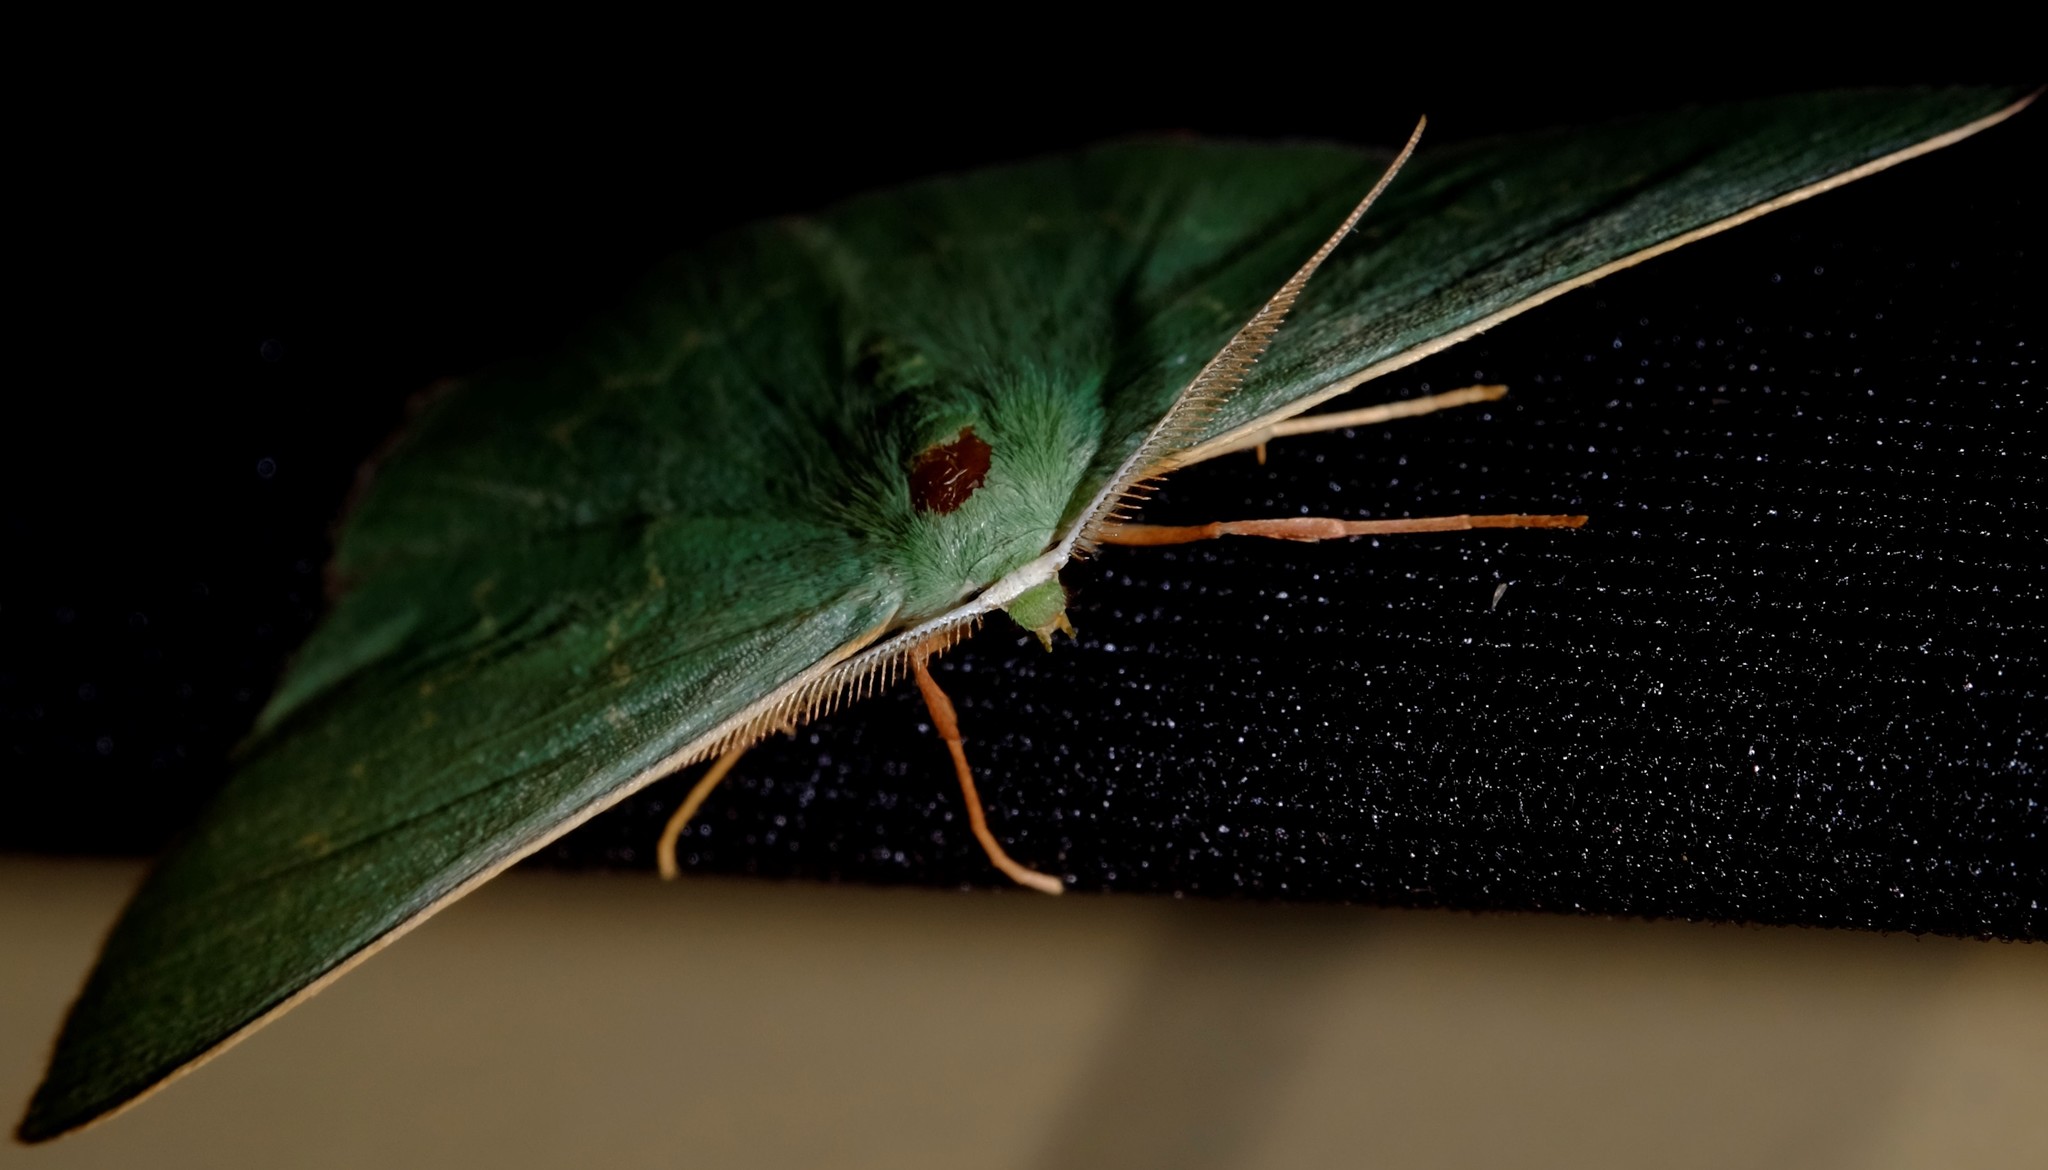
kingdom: Animalia
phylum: Arthropoda
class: Insecta
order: Lepidoptera
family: Geometridae
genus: Prasinocyma
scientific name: Prasinocyma semicrocea
